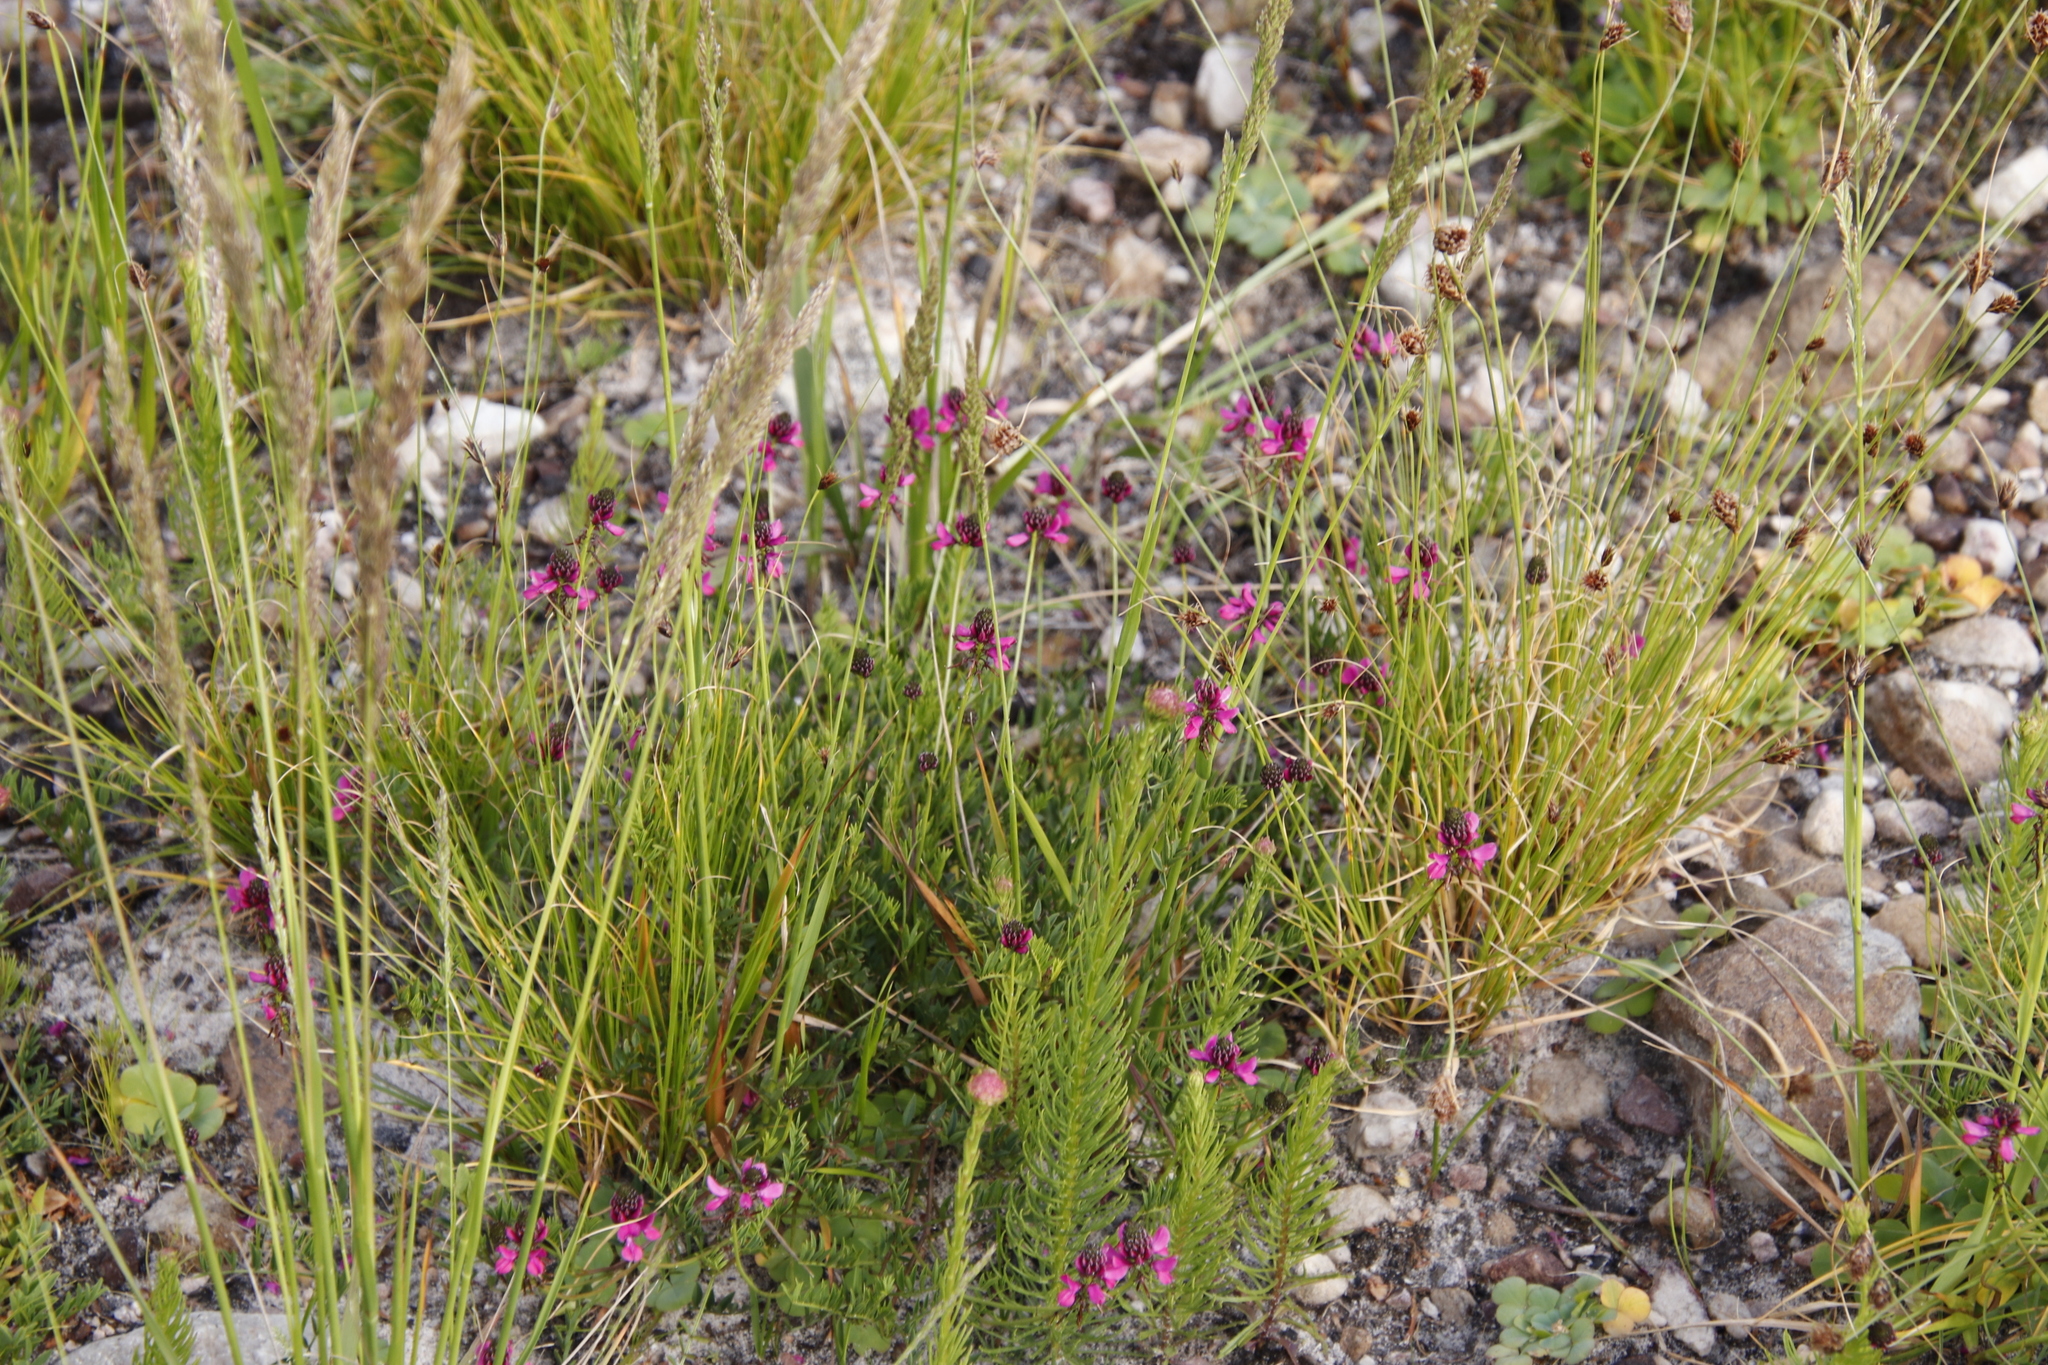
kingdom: Plantae
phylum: Tracheophyta
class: Magnoliopsida
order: Fabales
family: Fabaceae
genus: Indigofera
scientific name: Indigofera capillaris
